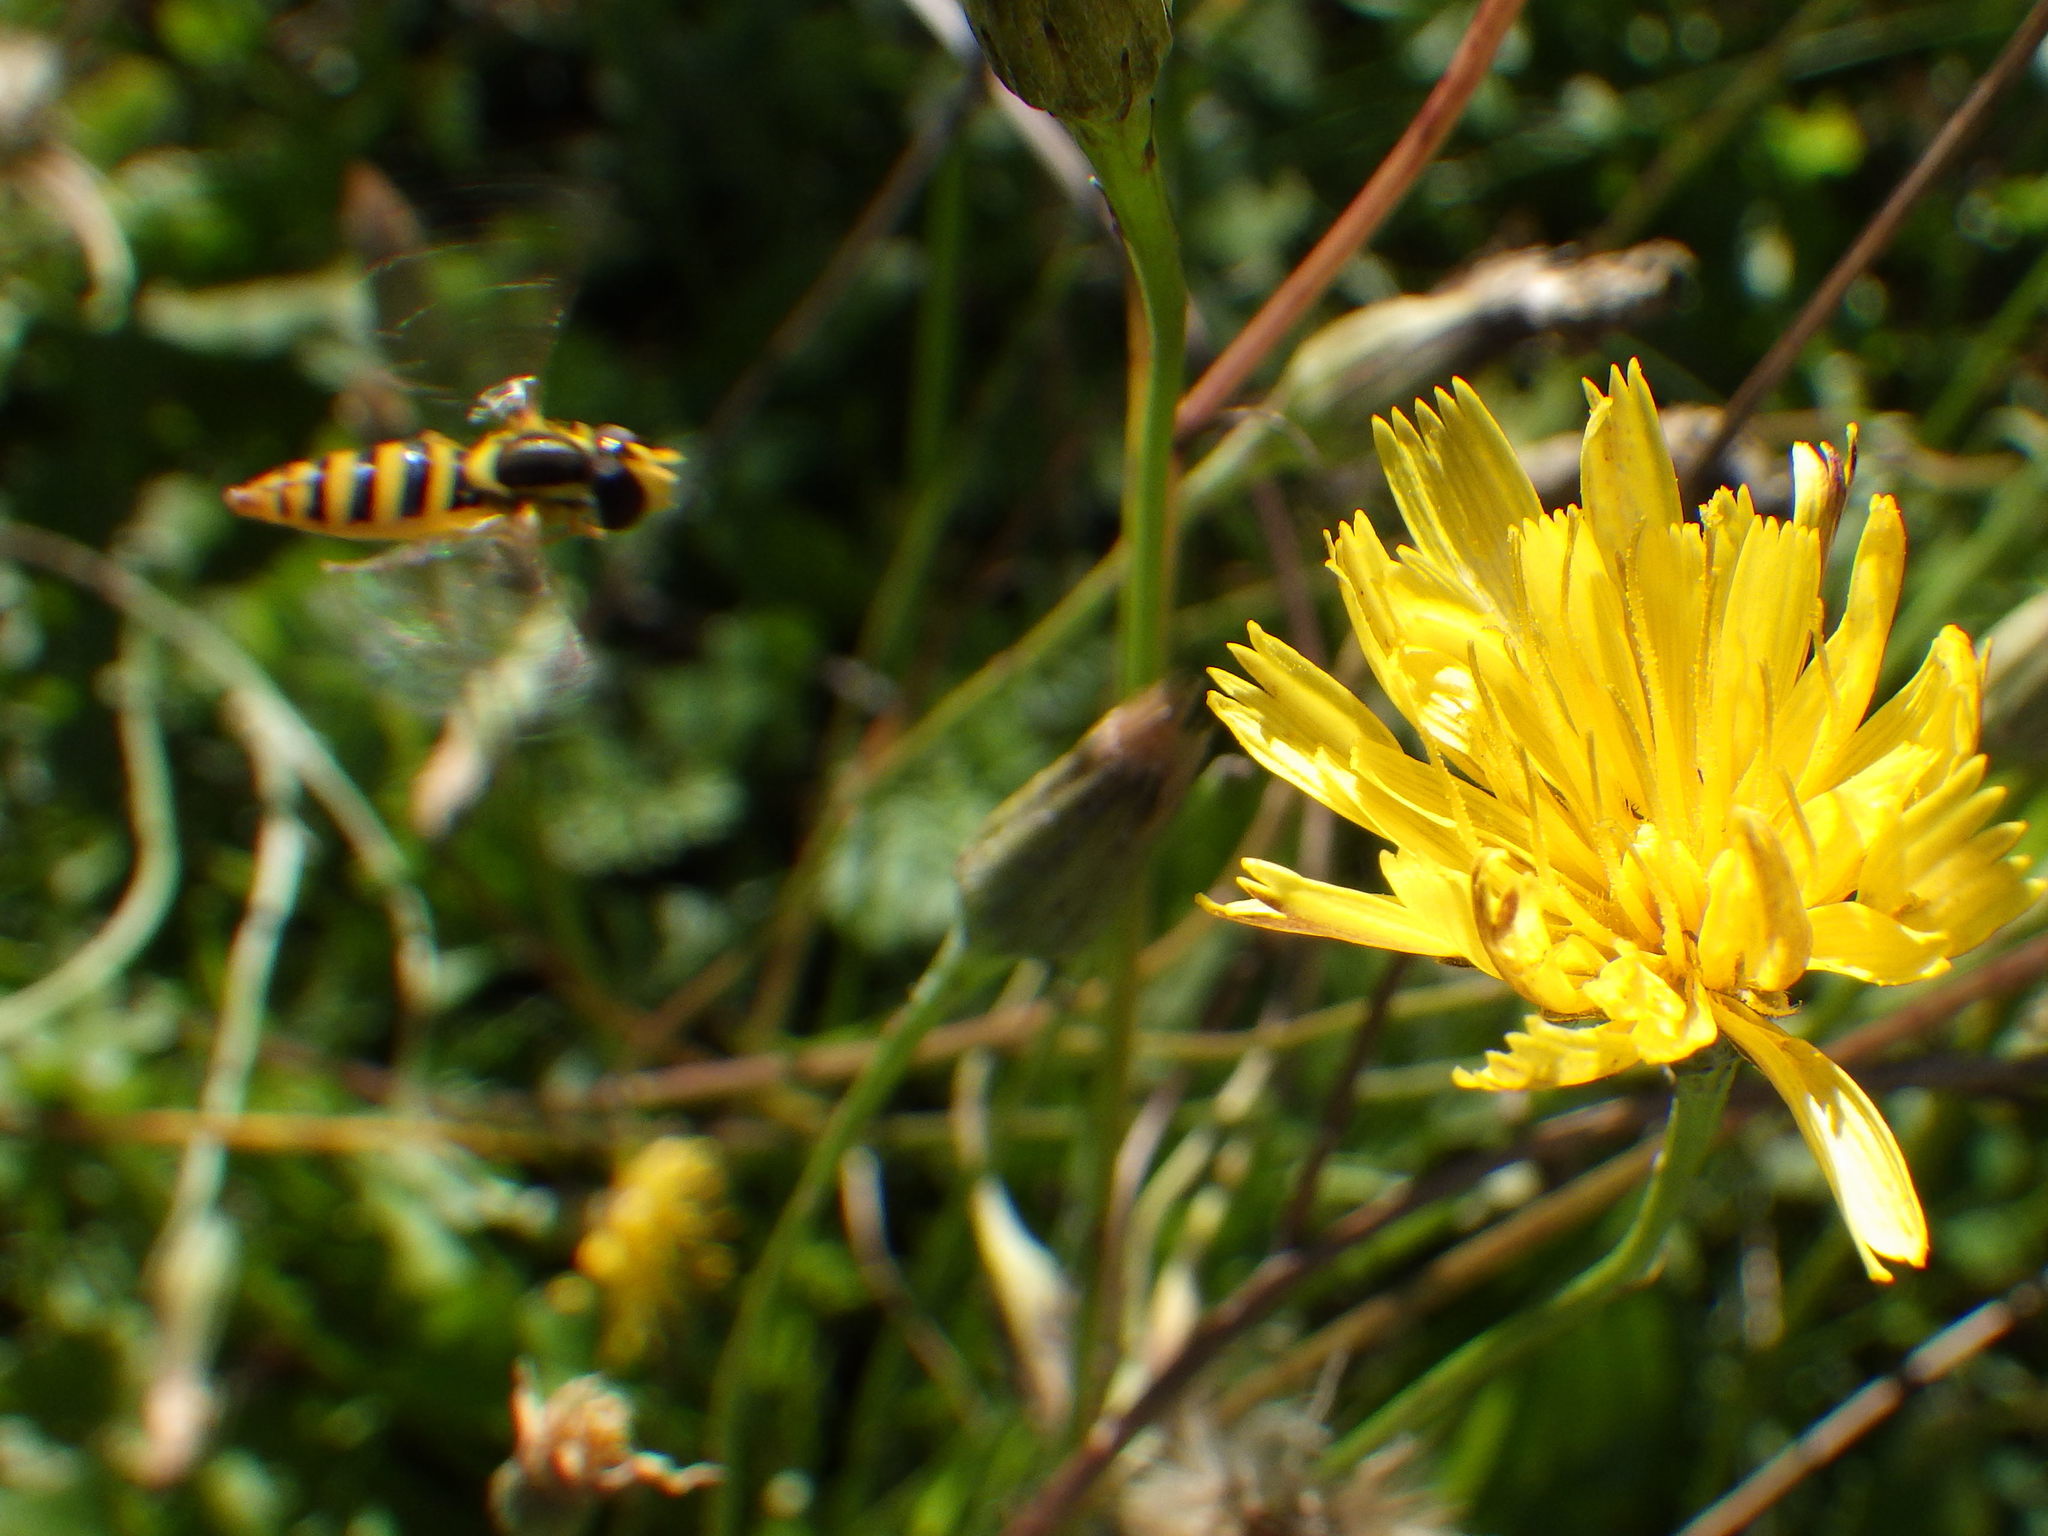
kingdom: Animalia
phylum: Arthropoda
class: Insecta
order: Diptera
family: Syrphidae
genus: Sphaerophoria
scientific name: Sphaerophoria
